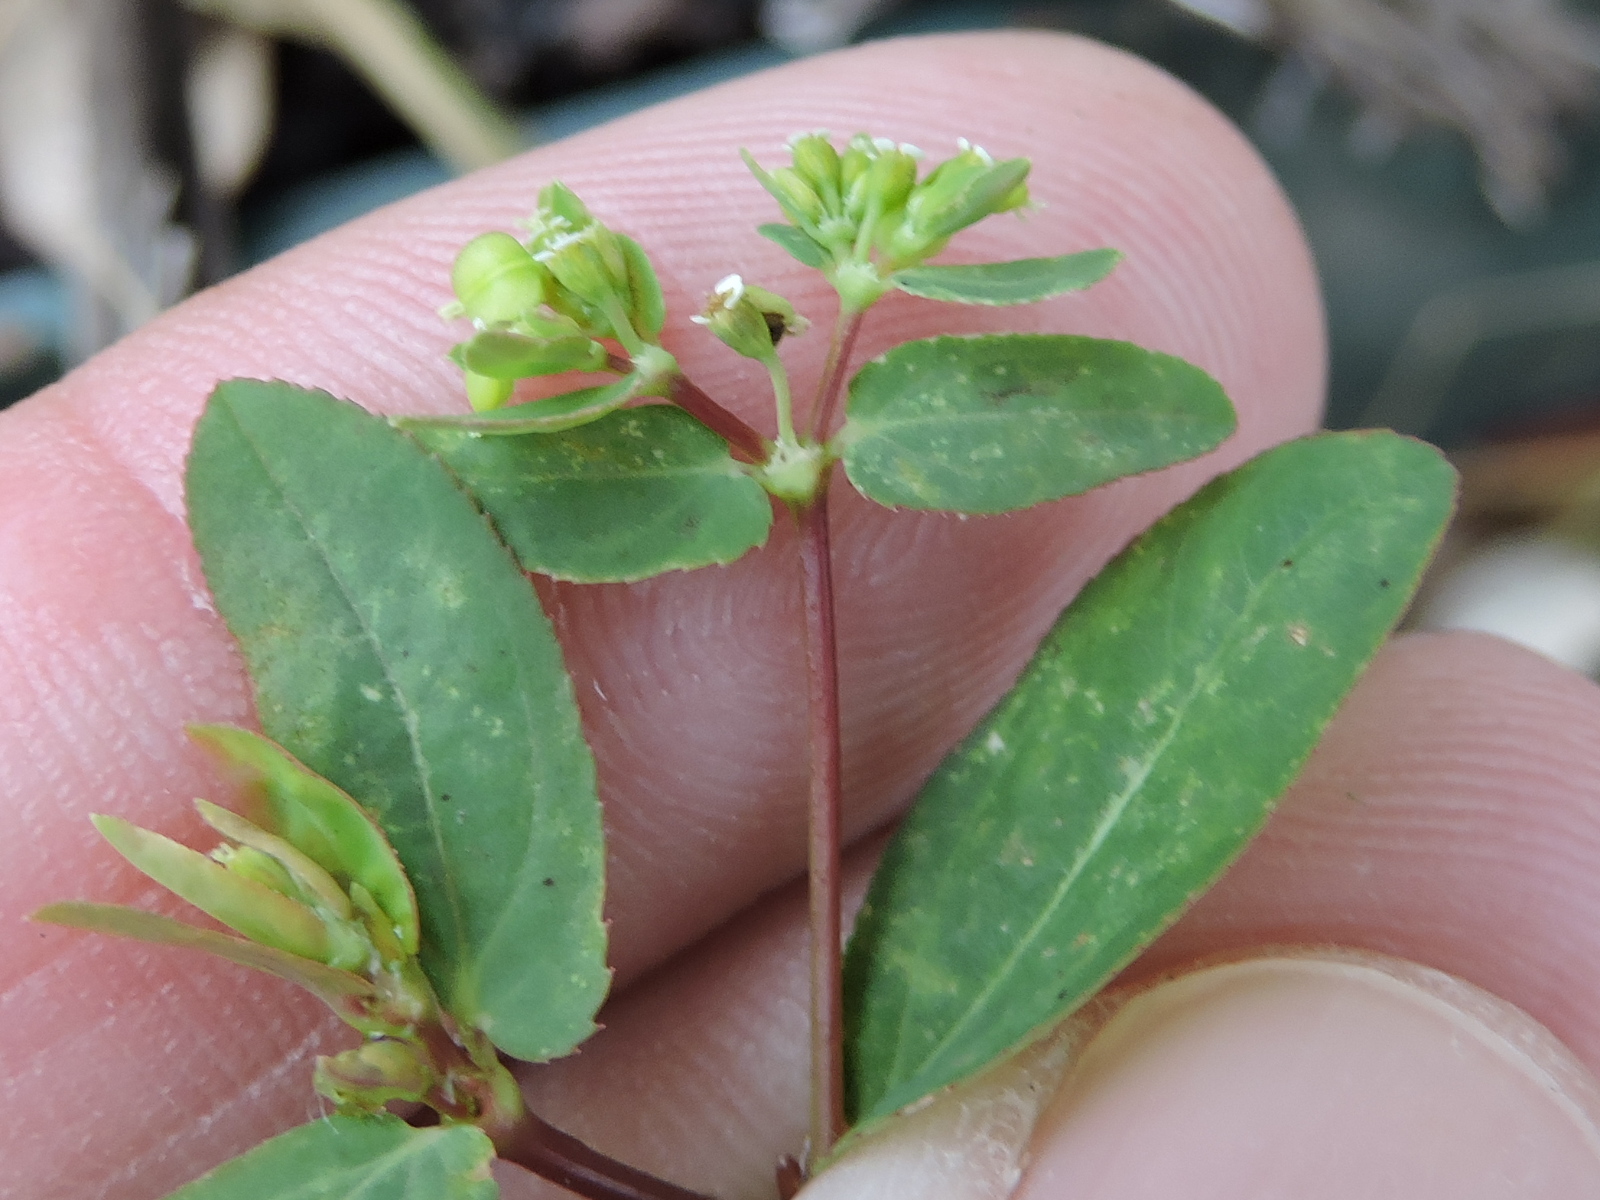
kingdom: Plantae
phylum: Tracheophyta
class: Magnoliopsida
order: Malpighiales
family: Euphorbiaceae
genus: Euphorbia
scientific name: Euphorbia hyssopifolia
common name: Hyssopleaf sandmat
